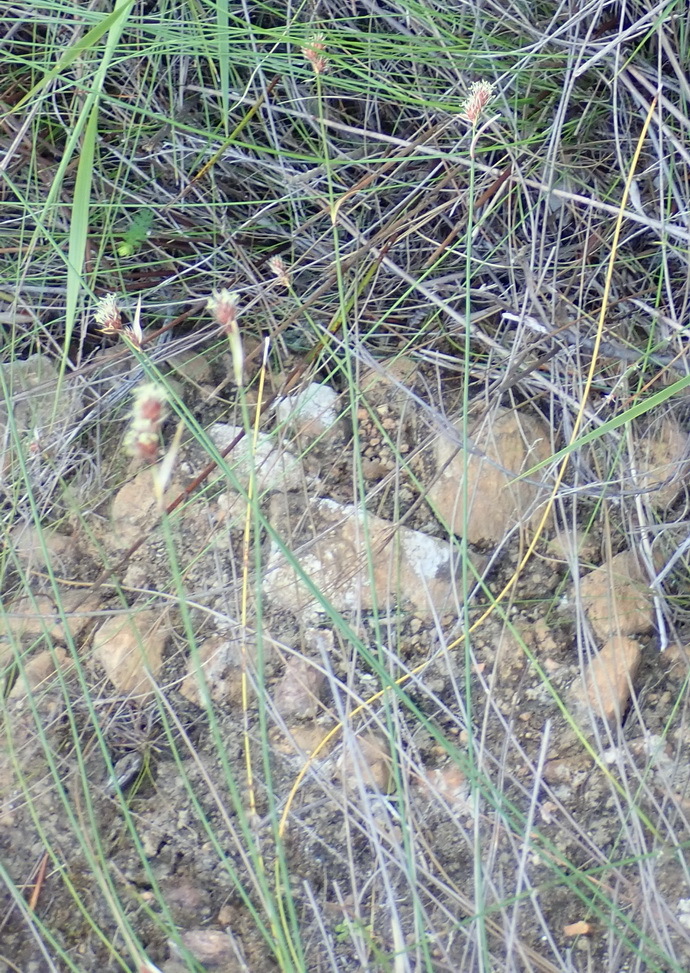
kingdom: Plantae
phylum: Tracheophyta
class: Liliopsida
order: Poales
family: Restionaceae
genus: Hypodiscus
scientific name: Hypodiscus aristatus
